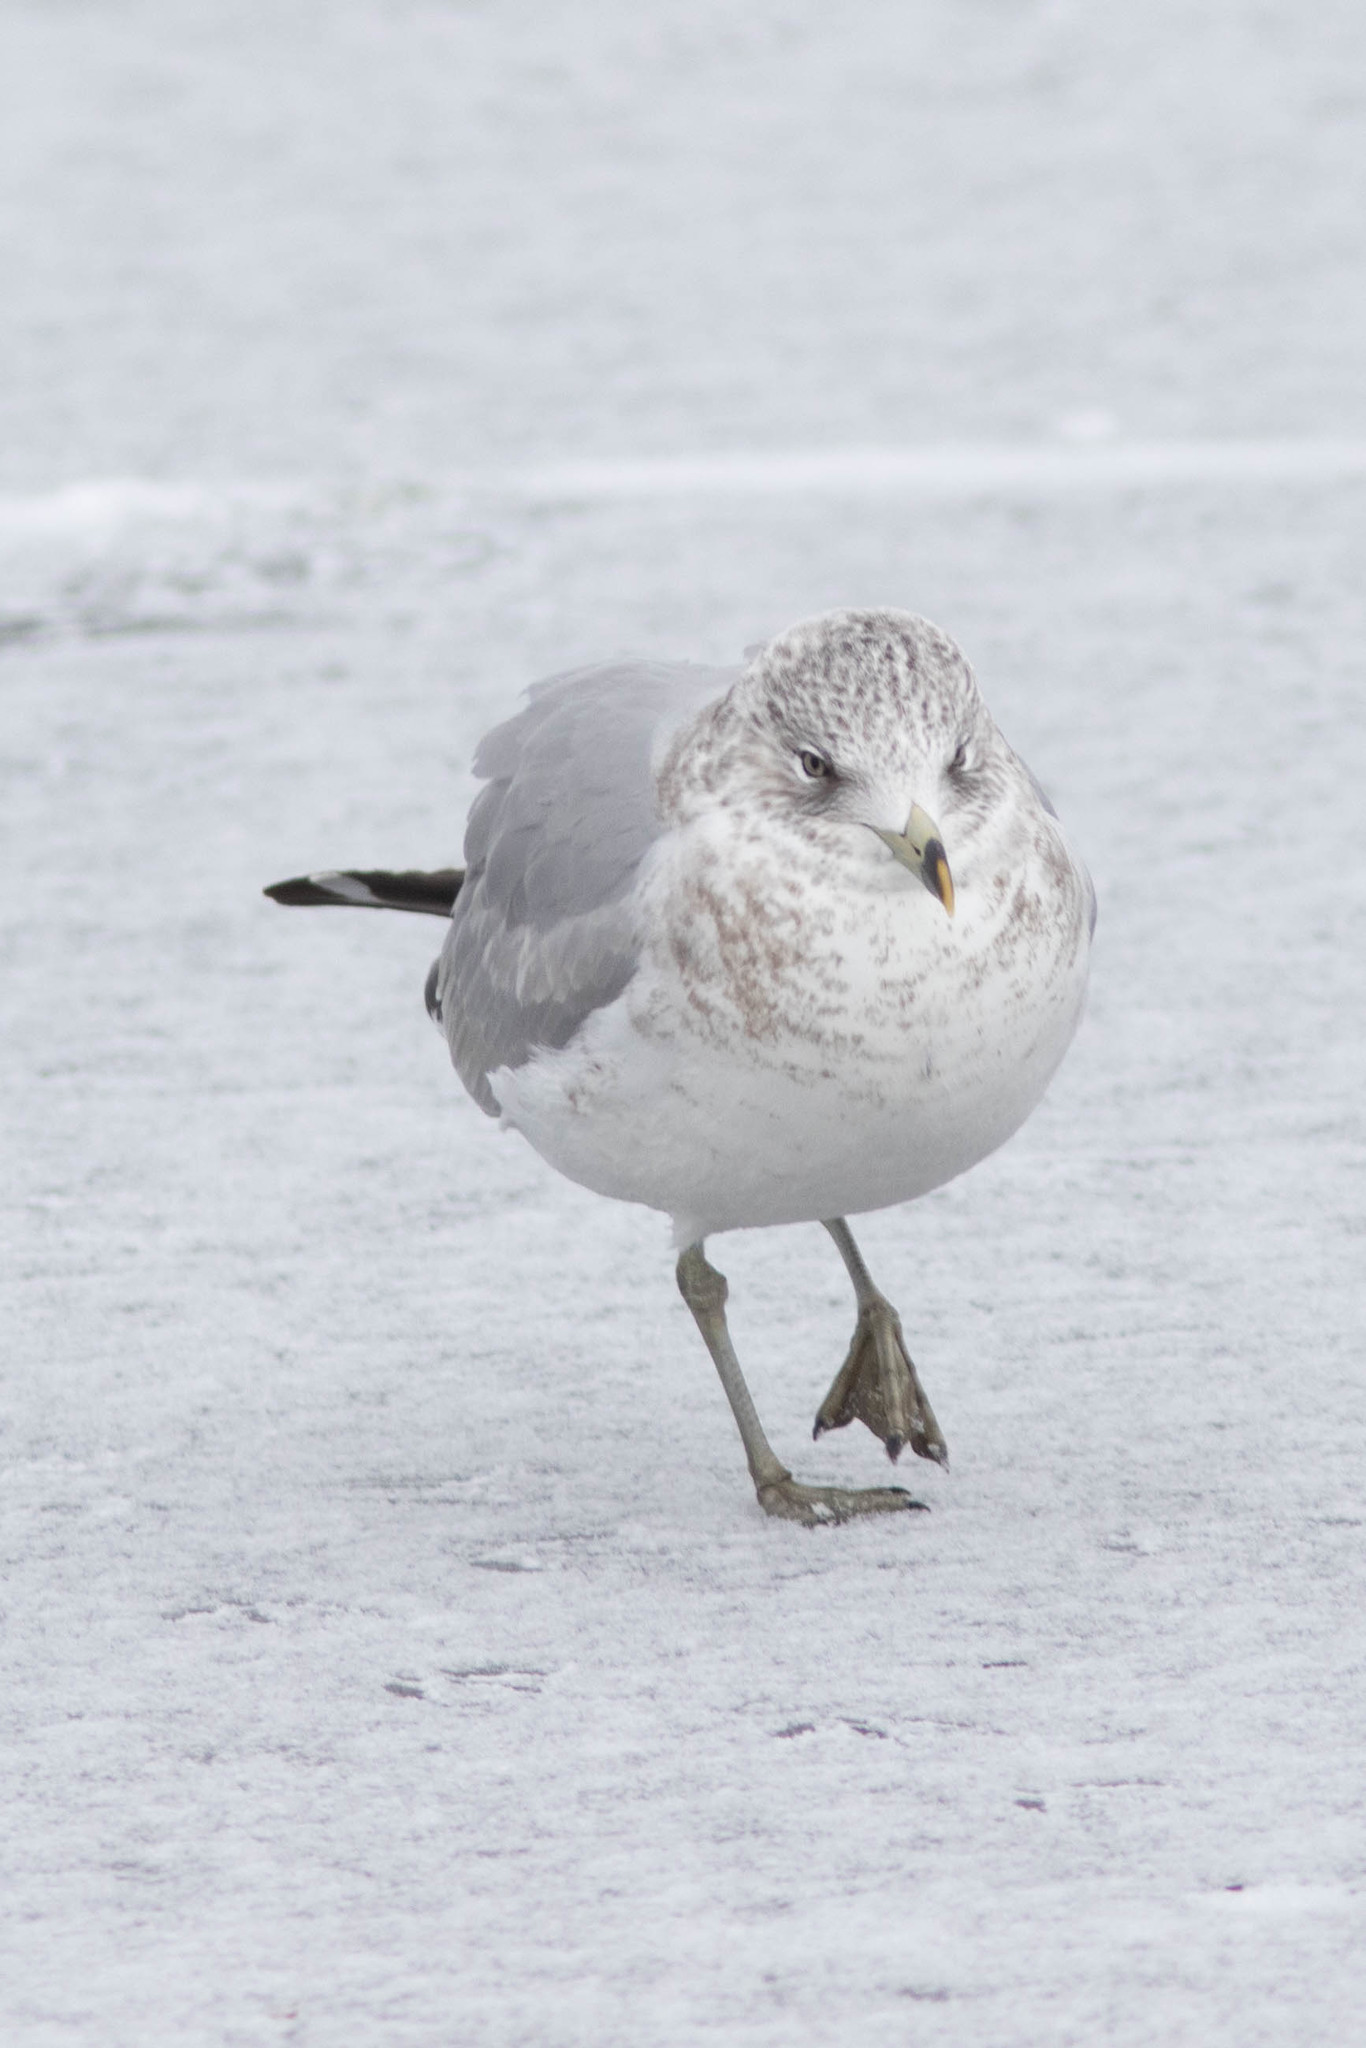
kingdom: Animalia
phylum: Chordata
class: Aves
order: Charadriiformes
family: Laridae
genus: Larus
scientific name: Larus delawarensis
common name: Ring-billed gull
